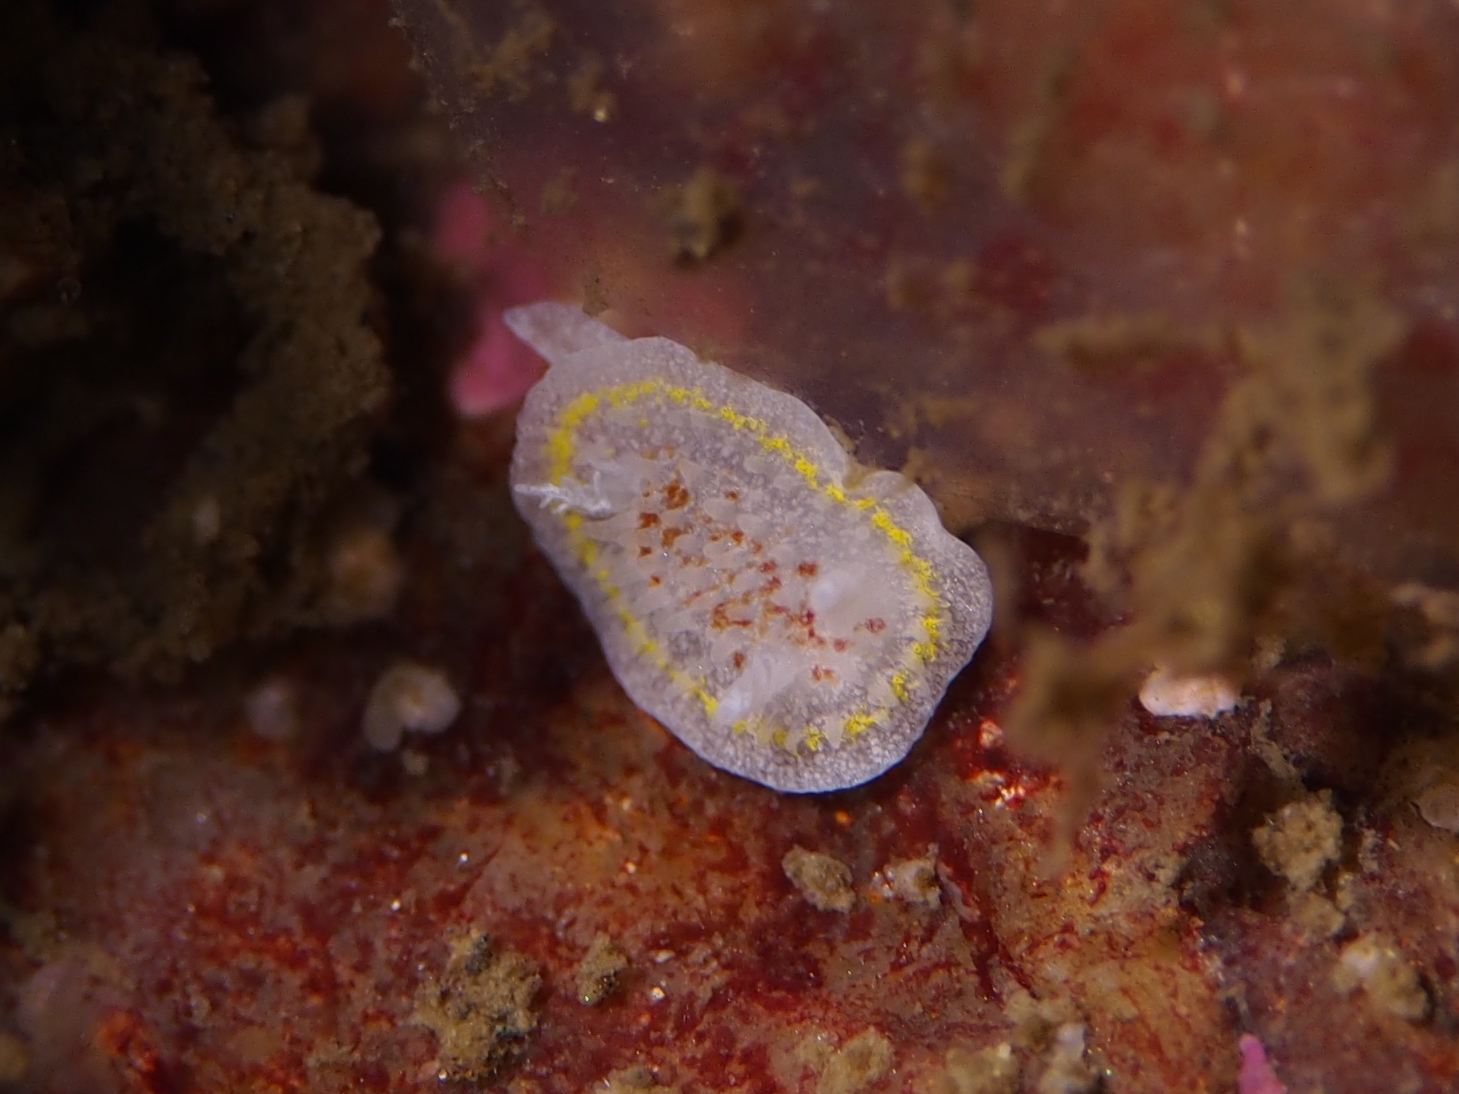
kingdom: Animalia
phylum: Mollusca
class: Gastropoda
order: Nudibranchia
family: Calycidorididae
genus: Diaphorodoris
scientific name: Diaphorodoris luteocincta
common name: Fried egg nudibranch
